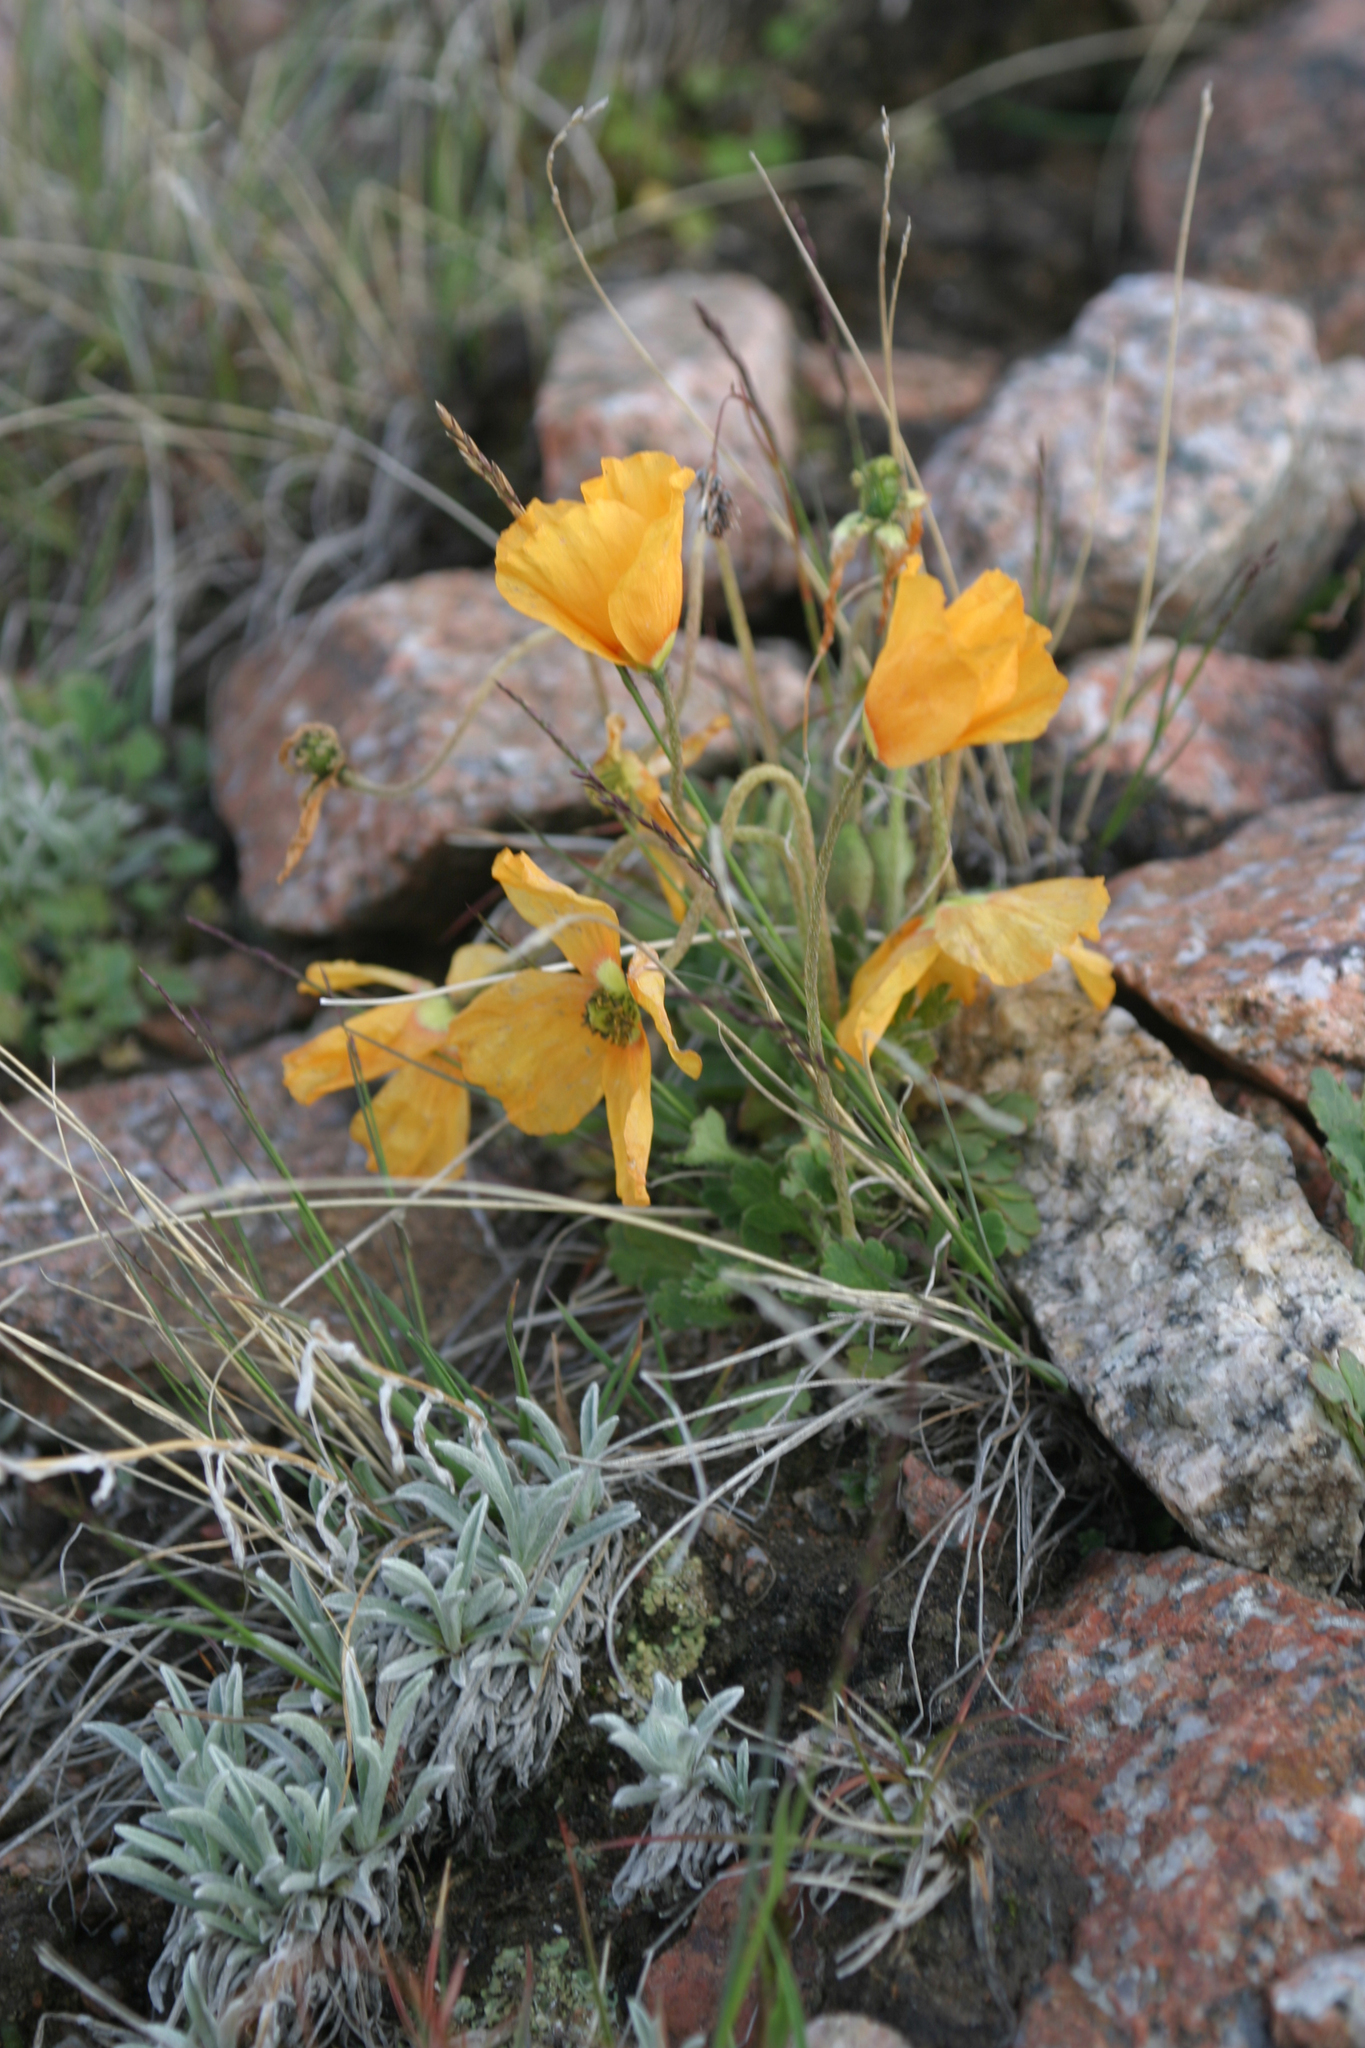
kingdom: Plantae
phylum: Tracheophyta
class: Magnoliopsida
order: Ranunculales
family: Papaveraceae
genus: Oreomecon
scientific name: Oreomecon
